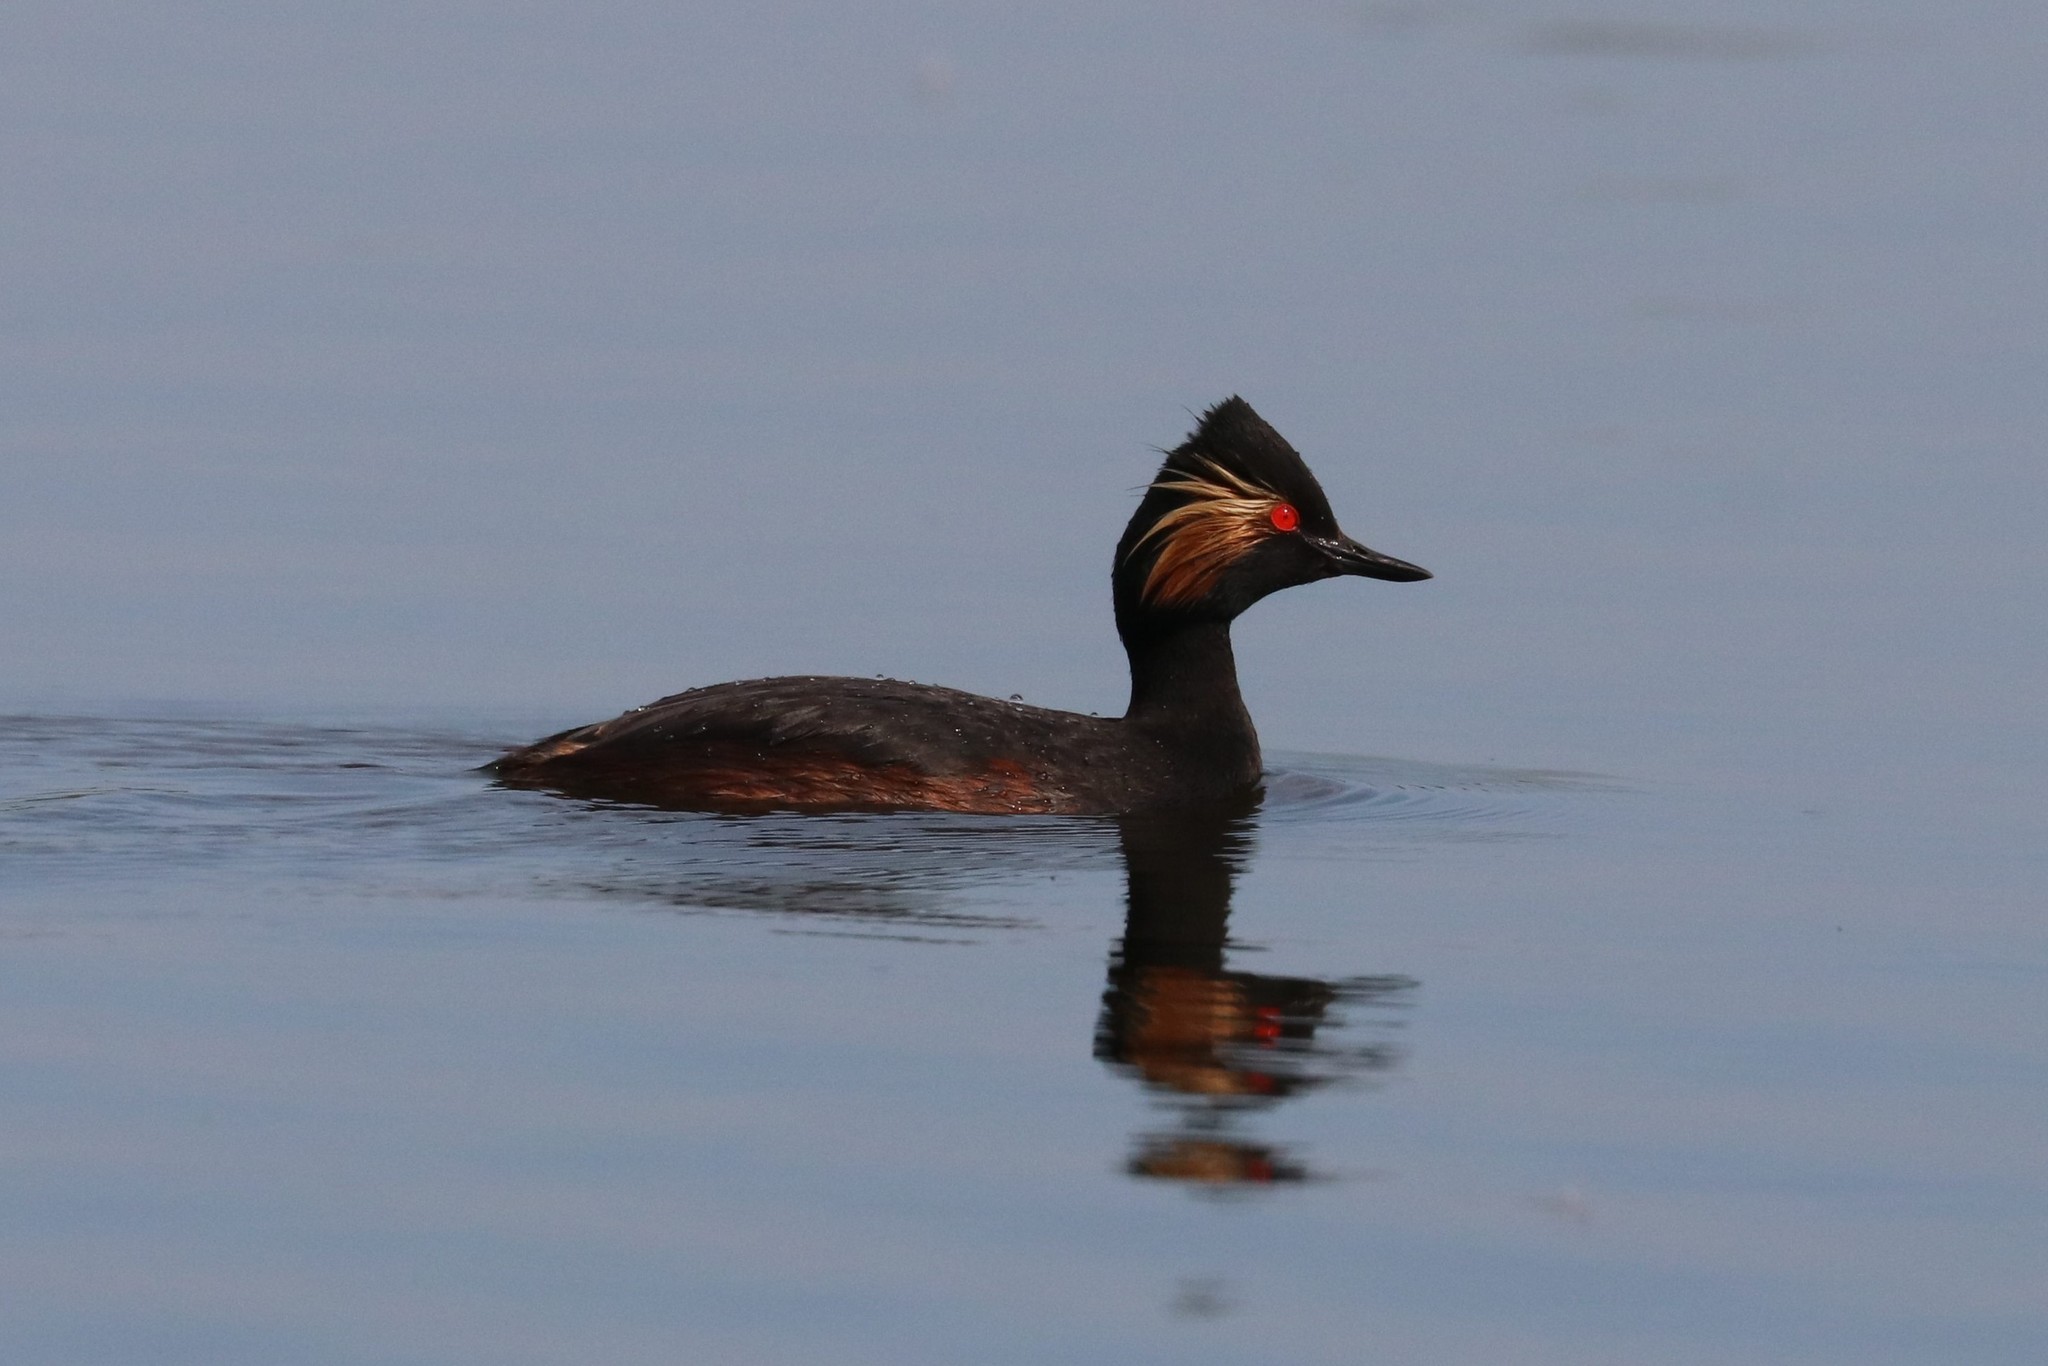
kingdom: Animalia
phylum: Chordata
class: Aves
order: Podicipediformes
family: Podicipedidae
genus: Podiceps
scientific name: Podiceps nigricollis
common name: Black-necked grebe
